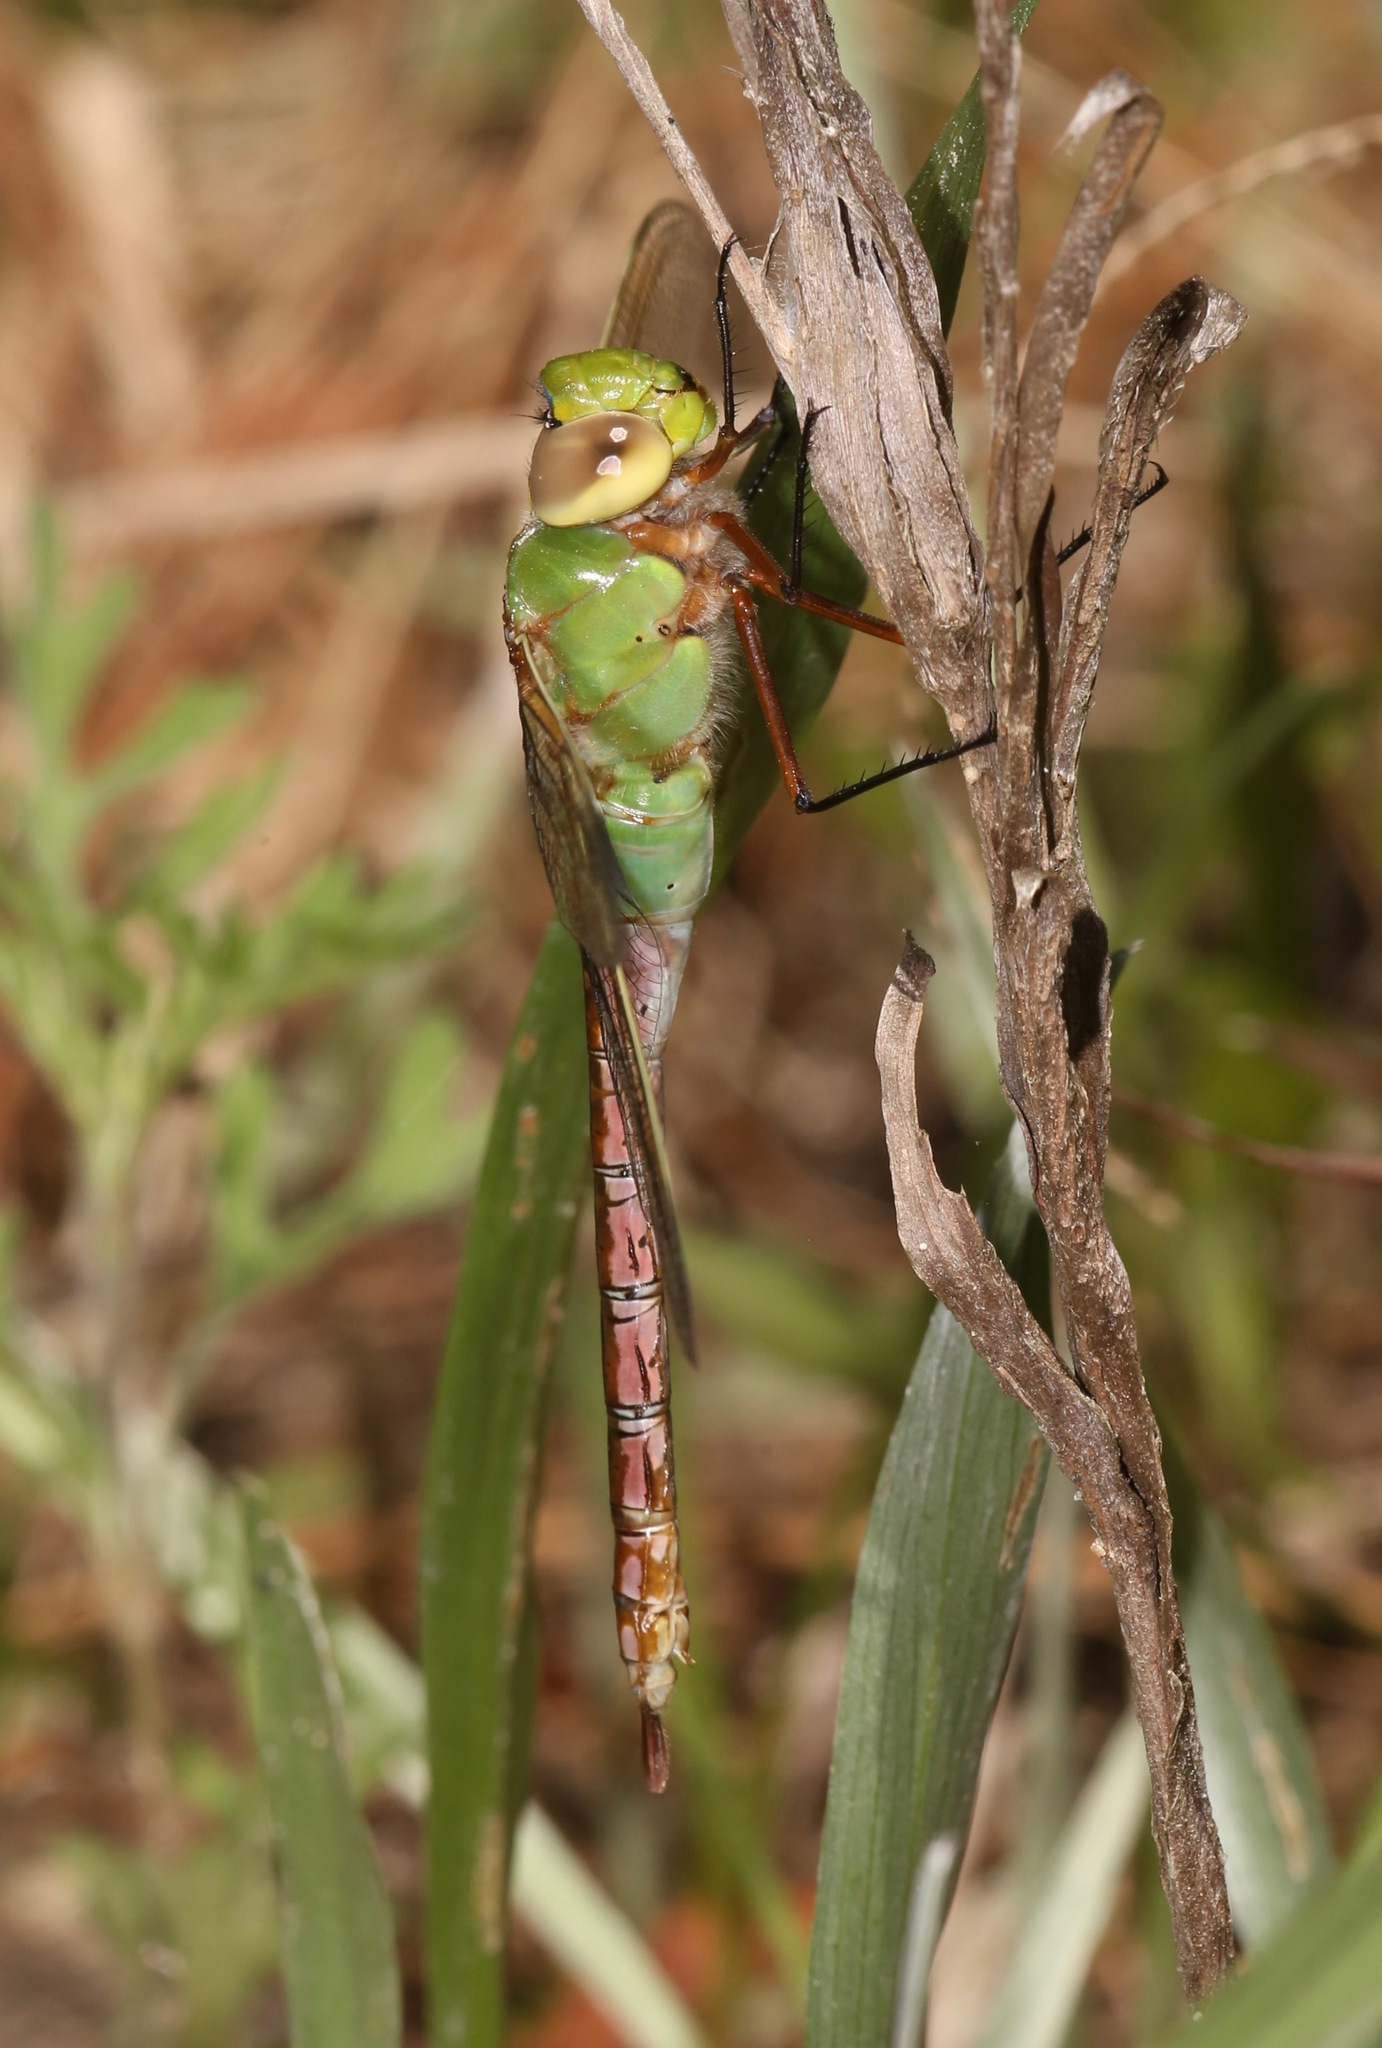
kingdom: Animalia
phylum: Arthropoda
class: Insecta
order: Odonata
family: Aeshnidae
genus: Anax
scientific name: Anax junius
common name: Common green darner
